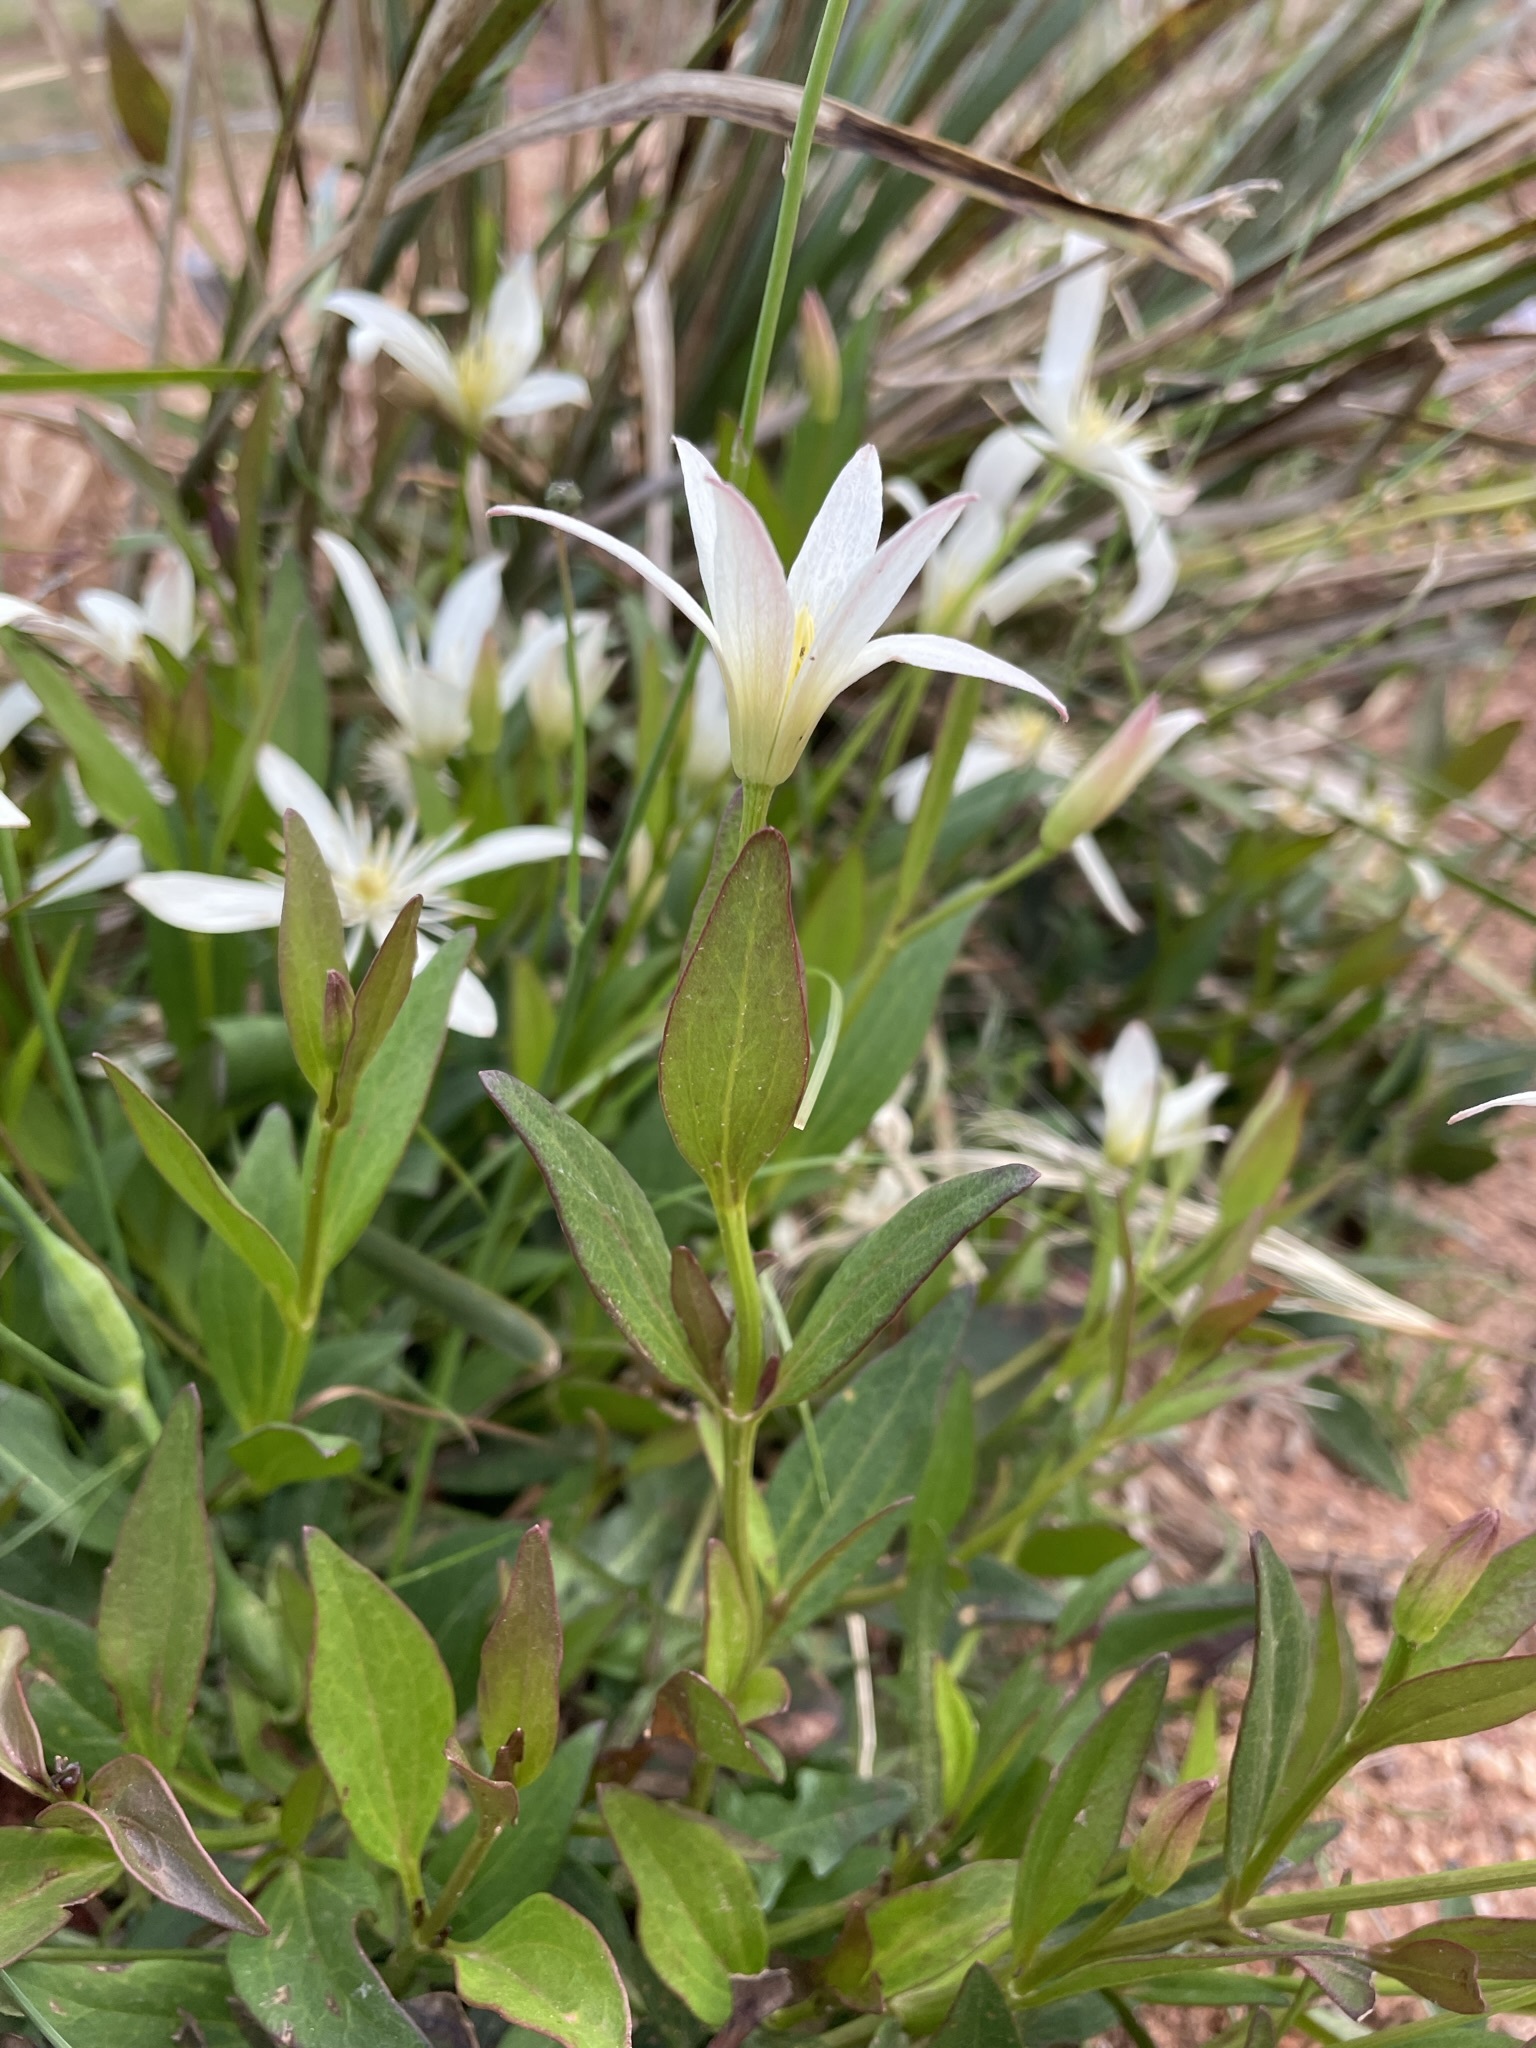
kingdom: Plantae
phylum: Tracheophyta
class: Magnoliopsida
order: Ranunculales
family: Ranunculaceae
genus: Clematis
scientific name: Clematis gentianoides
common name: Bushy clematis
